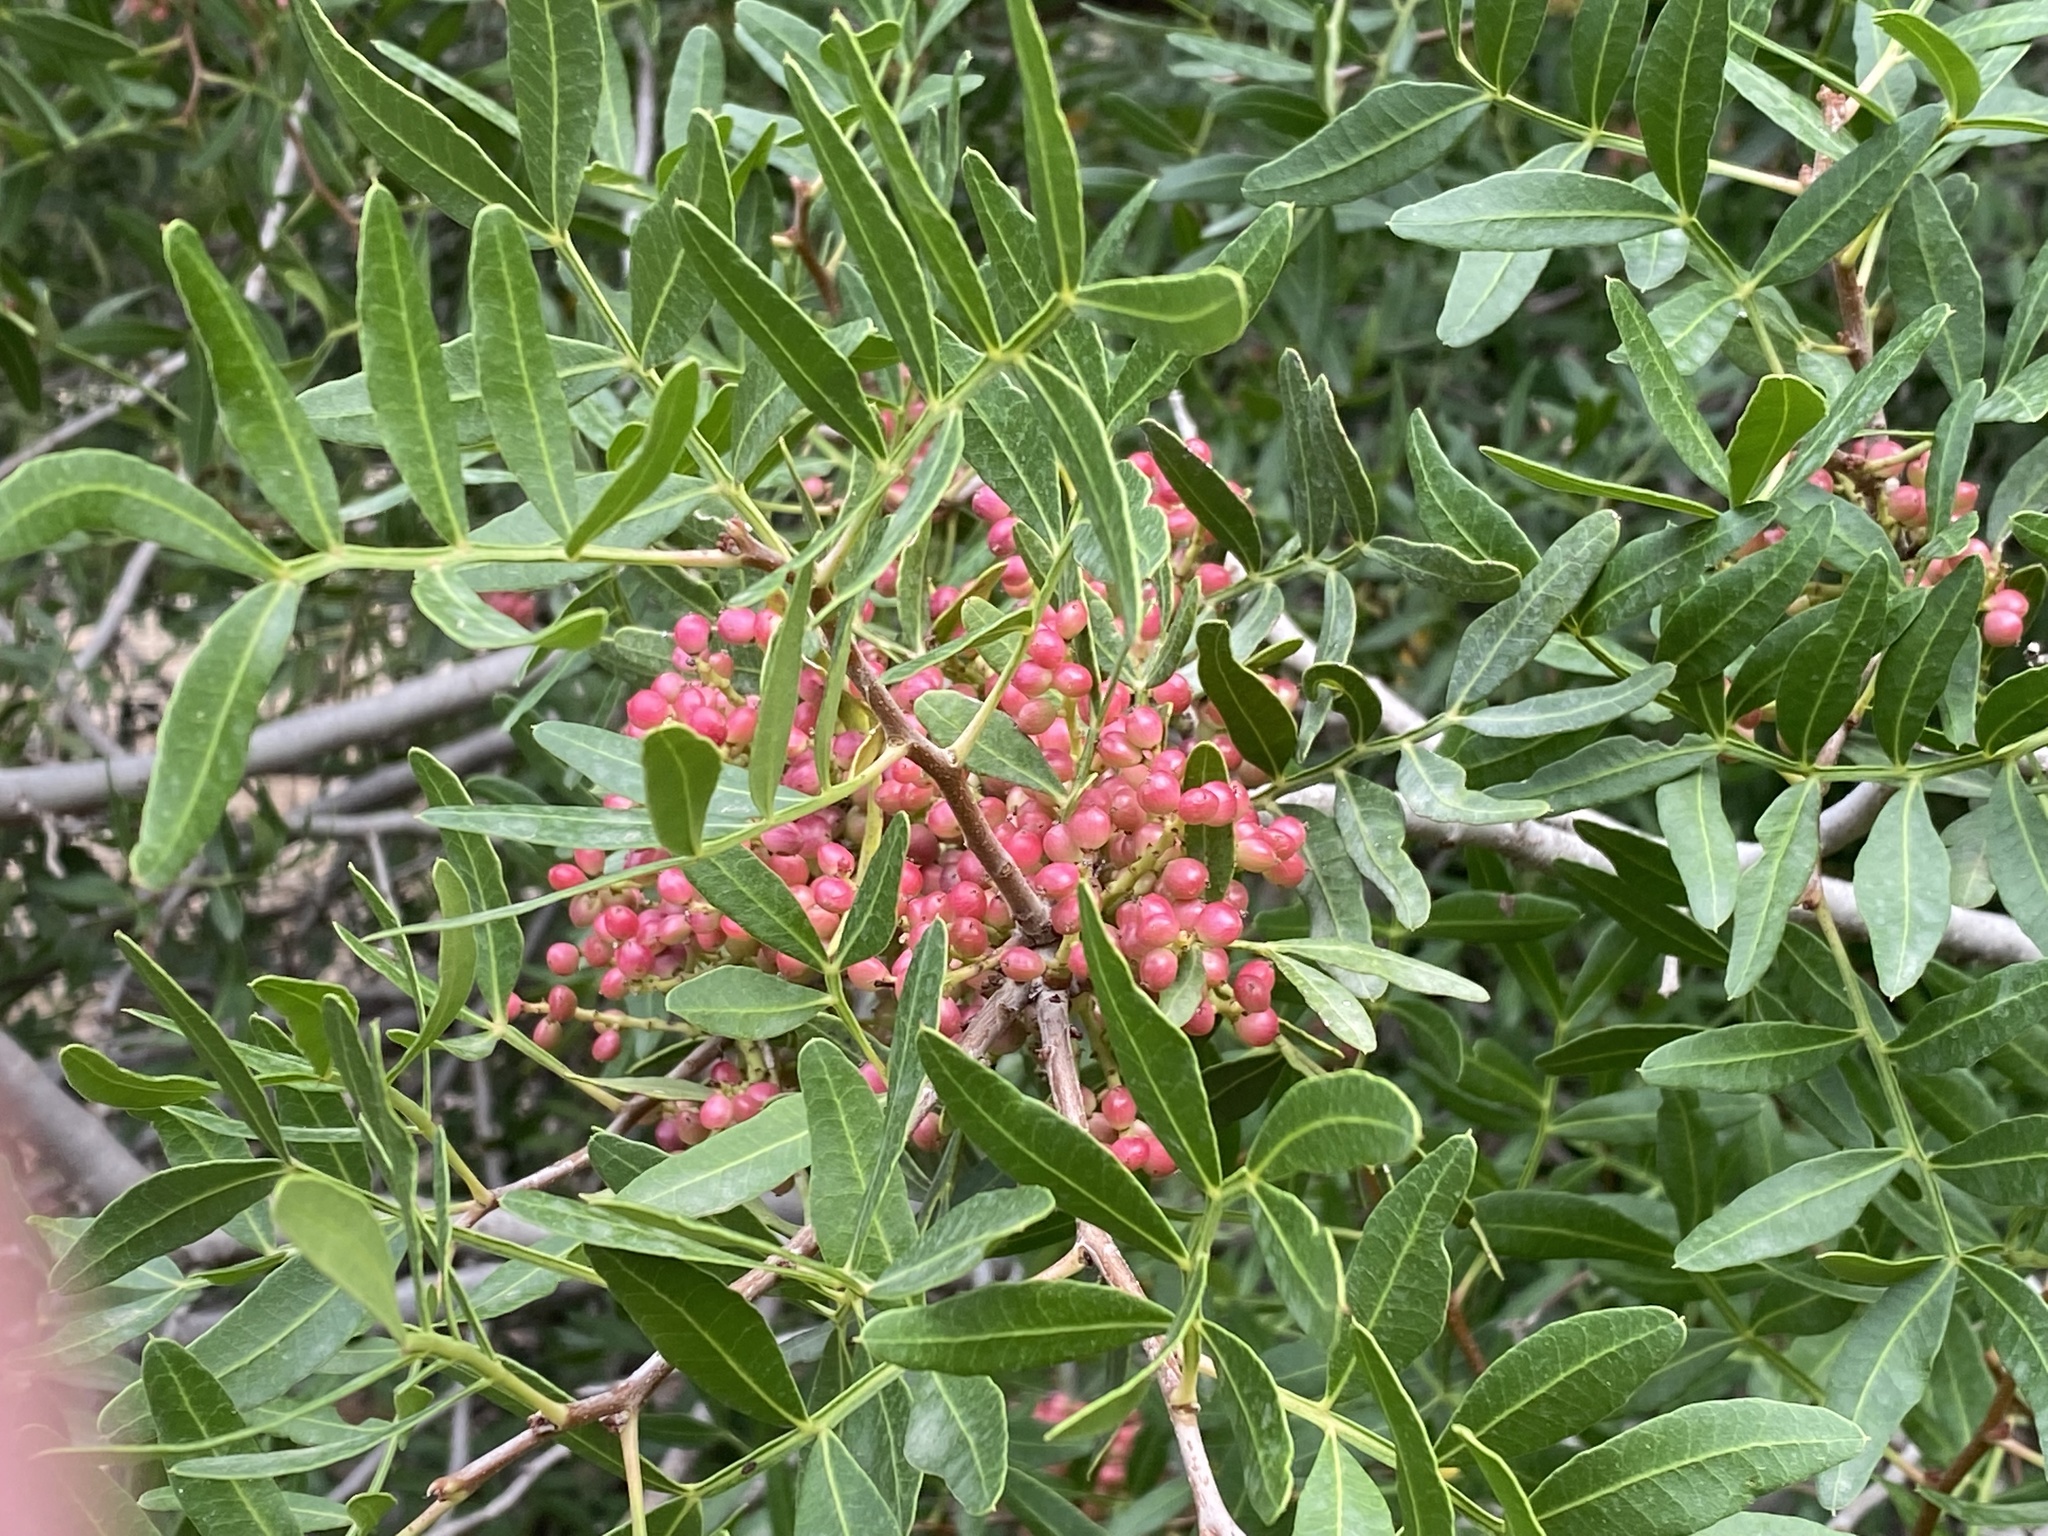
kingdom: Plantae
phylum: Tracheophyta
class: Magnoliopsida
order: Sapindales
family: Anacardiaceae
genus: Pistacia
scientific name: Pistacia lentiscus
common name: Lentisk
